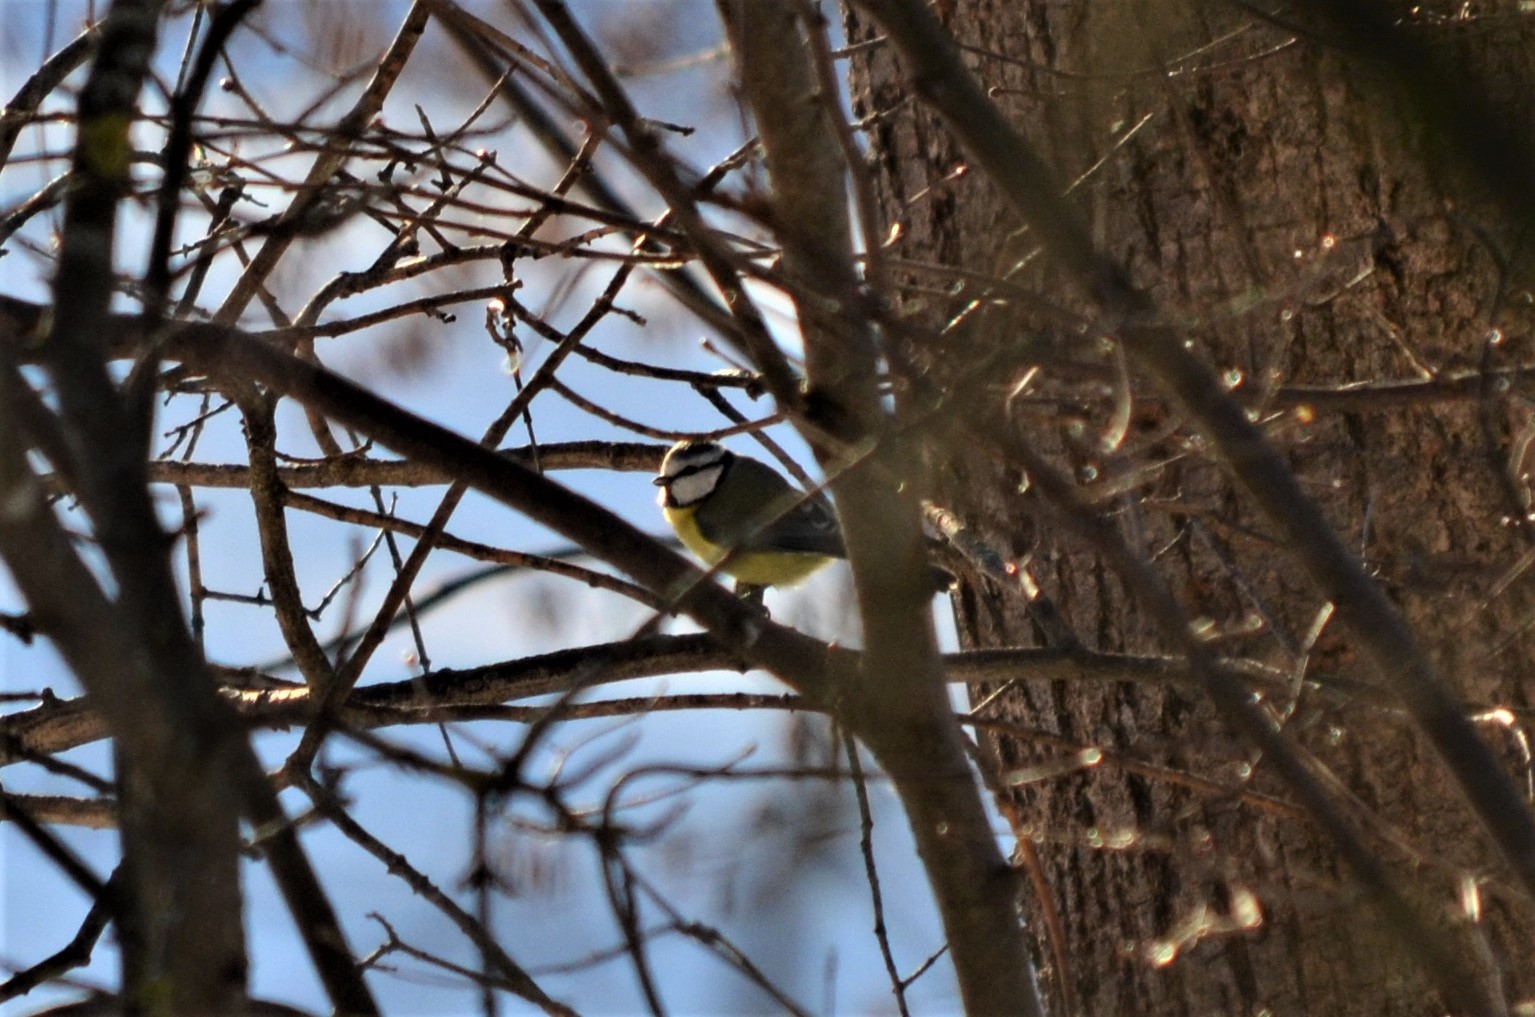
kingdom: Animalia
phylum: Chordata
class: Aves
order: Passeriformes
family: Paridae
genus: Cyanistes
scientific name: Cyanistes caeruleus
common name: Eurasian blue tit
